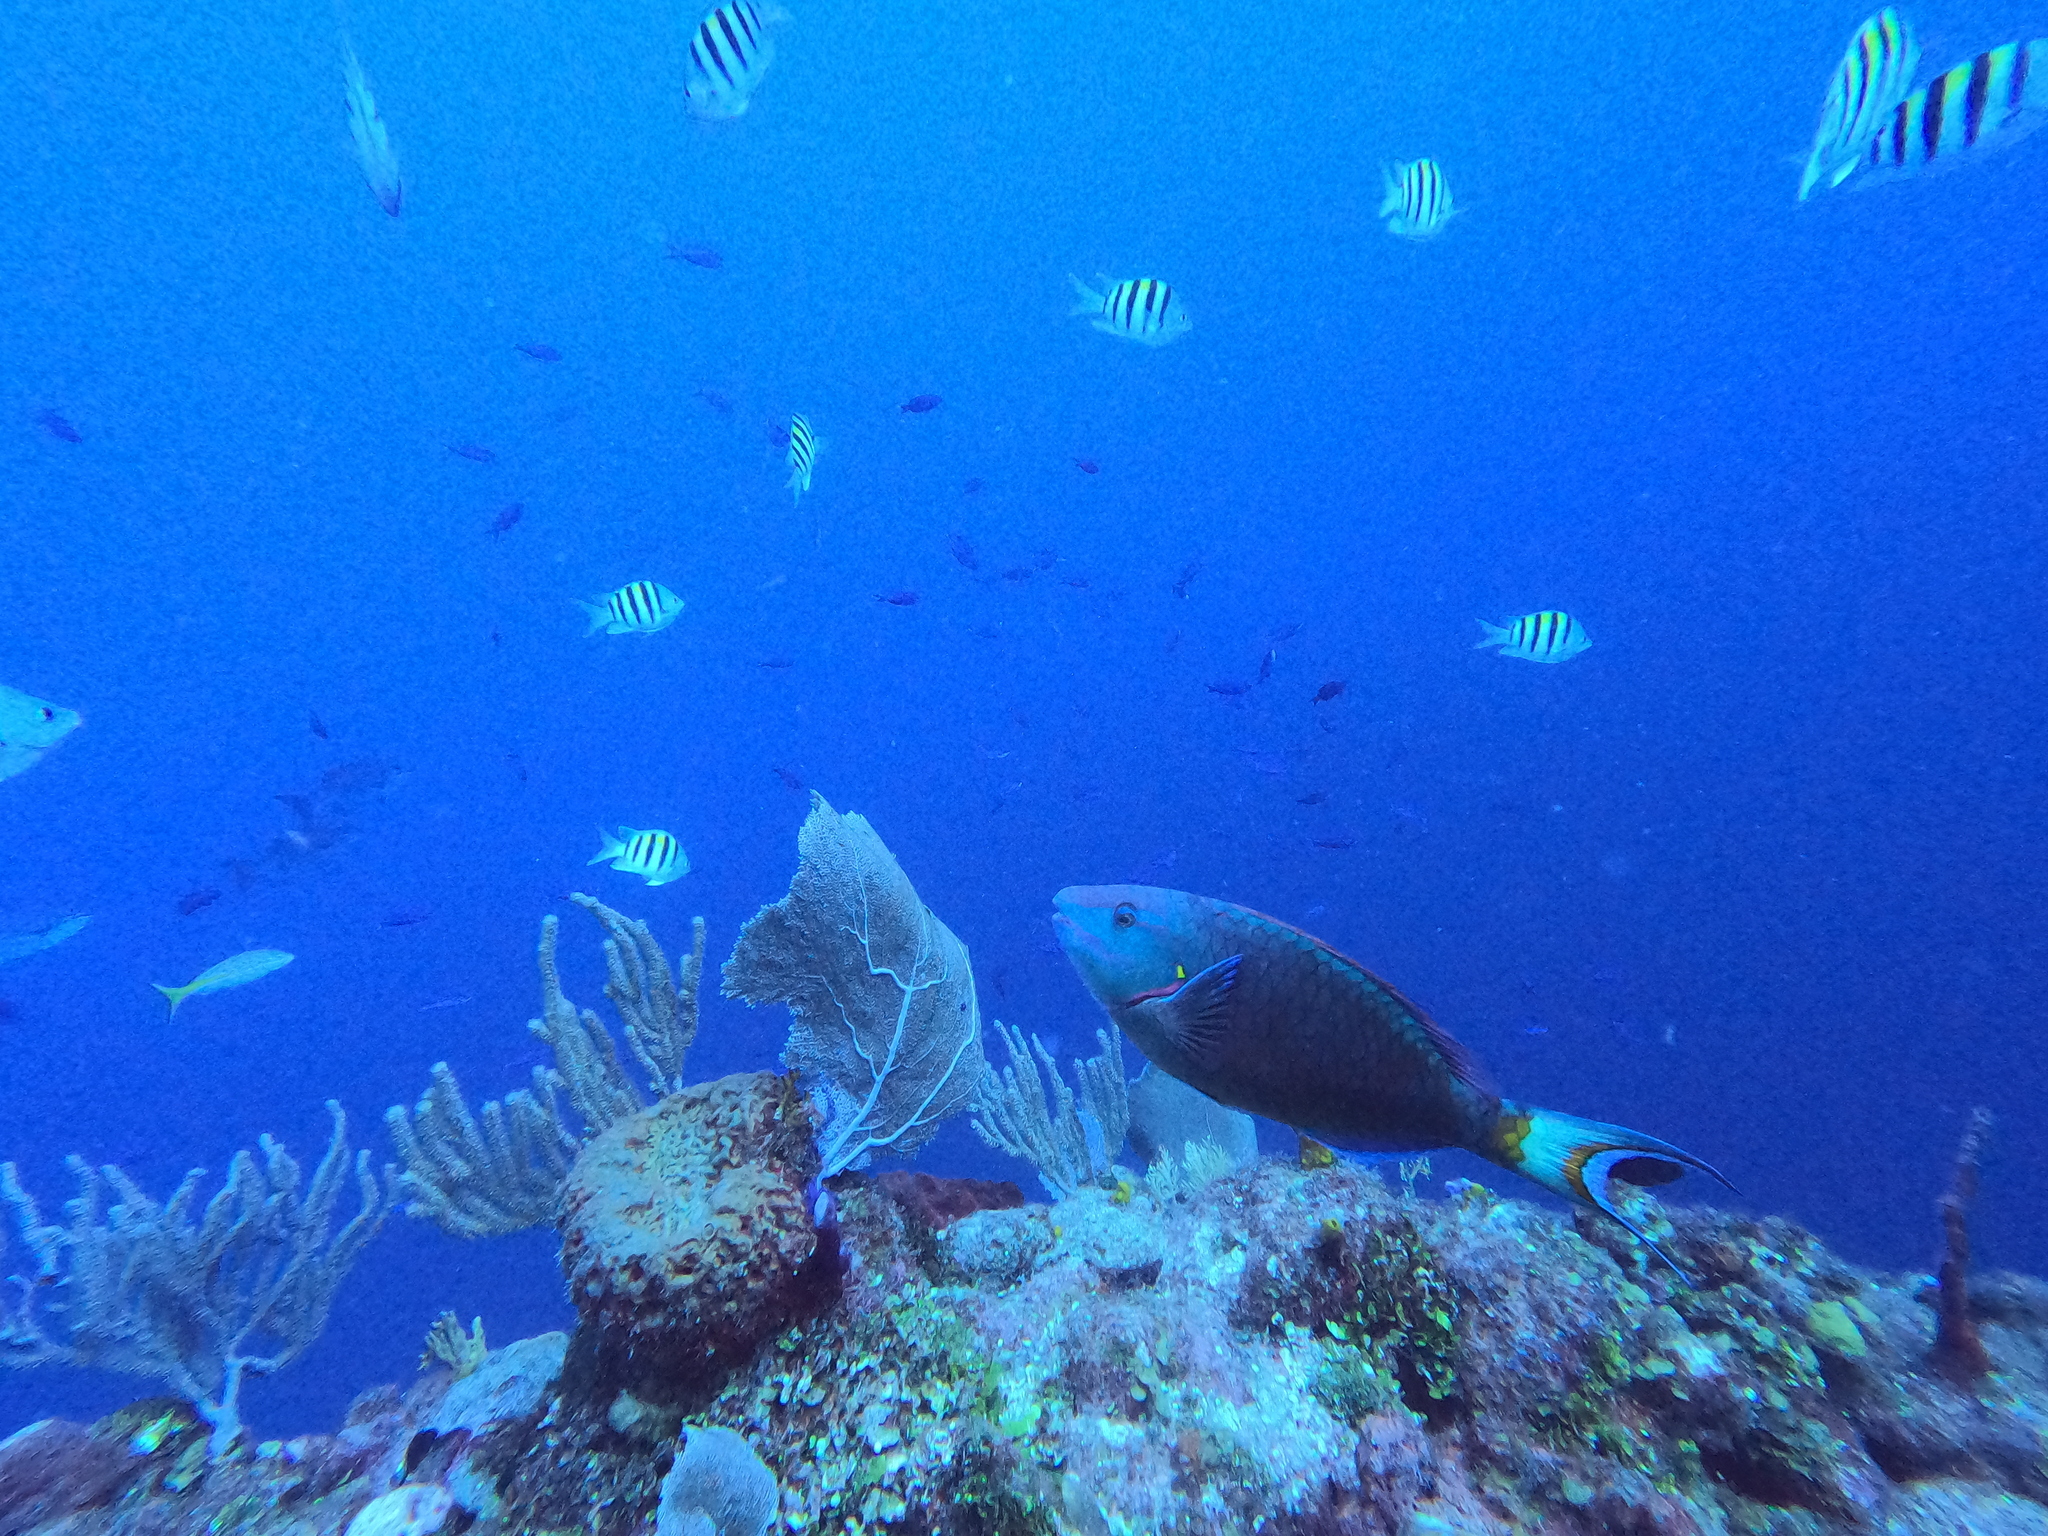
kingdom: Animalia
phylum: Chordata
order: Perciformes
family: Scaridae
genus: Sparisoma
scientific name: Sparisoma viride
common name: Stoplight parrotfish
